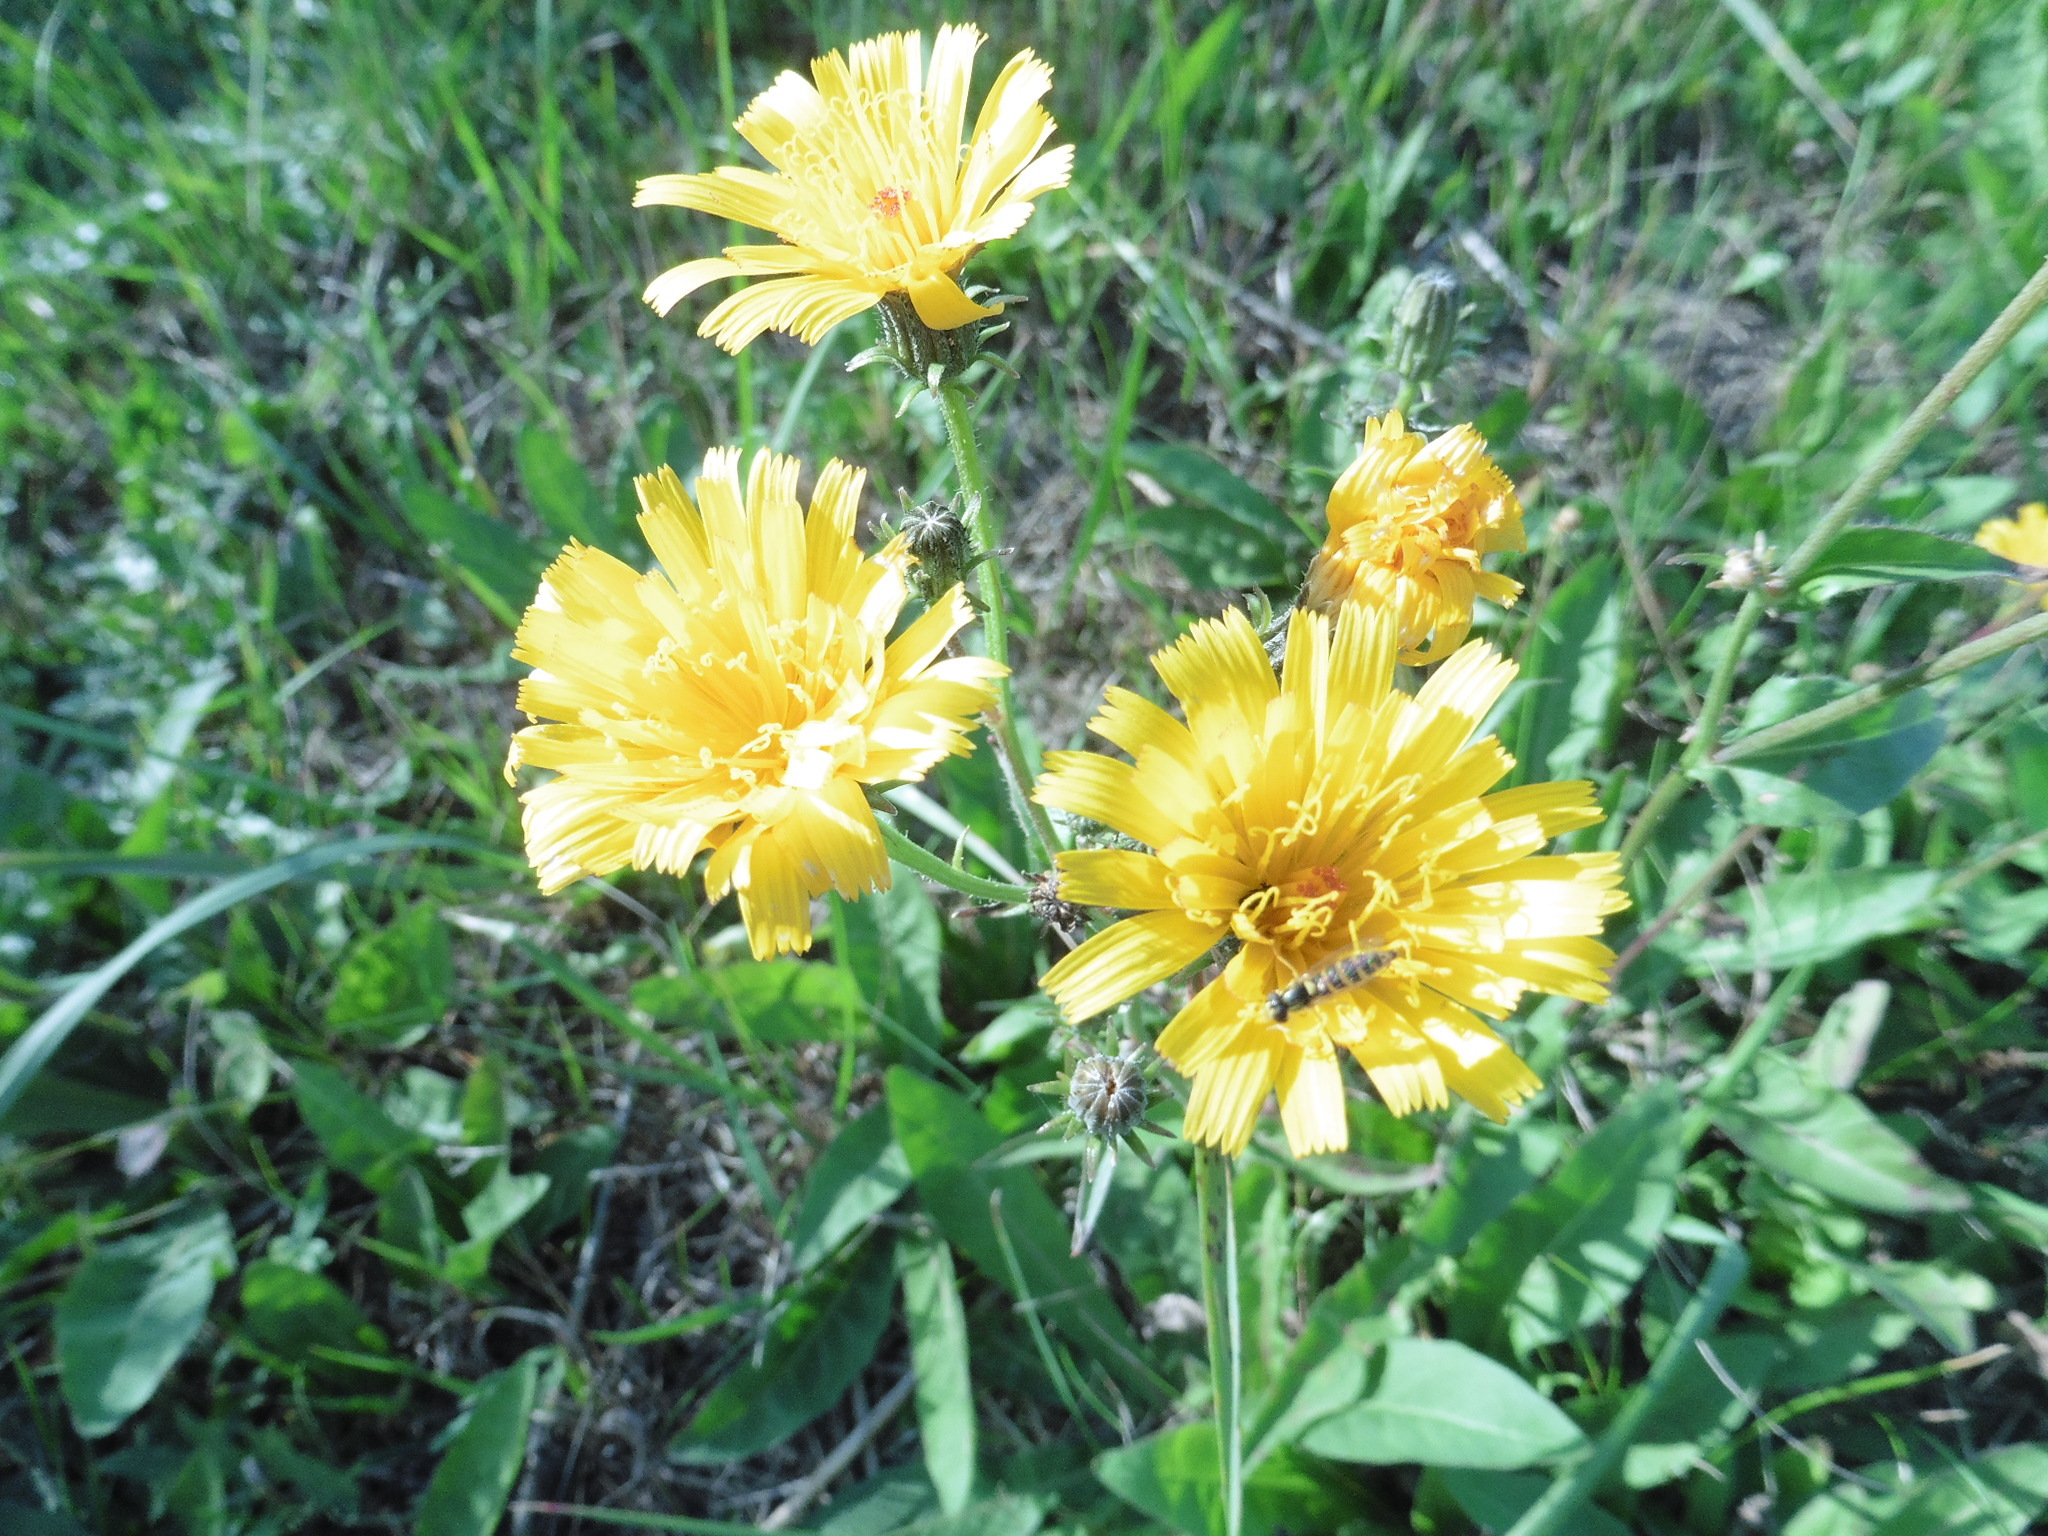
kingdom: Plantae
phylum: Tracheophyta
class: Magnoliopsida
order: Asterales
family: Asteraceae
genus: Picris
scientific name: Picris hieracioides
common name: Hawkweed oxtongue
